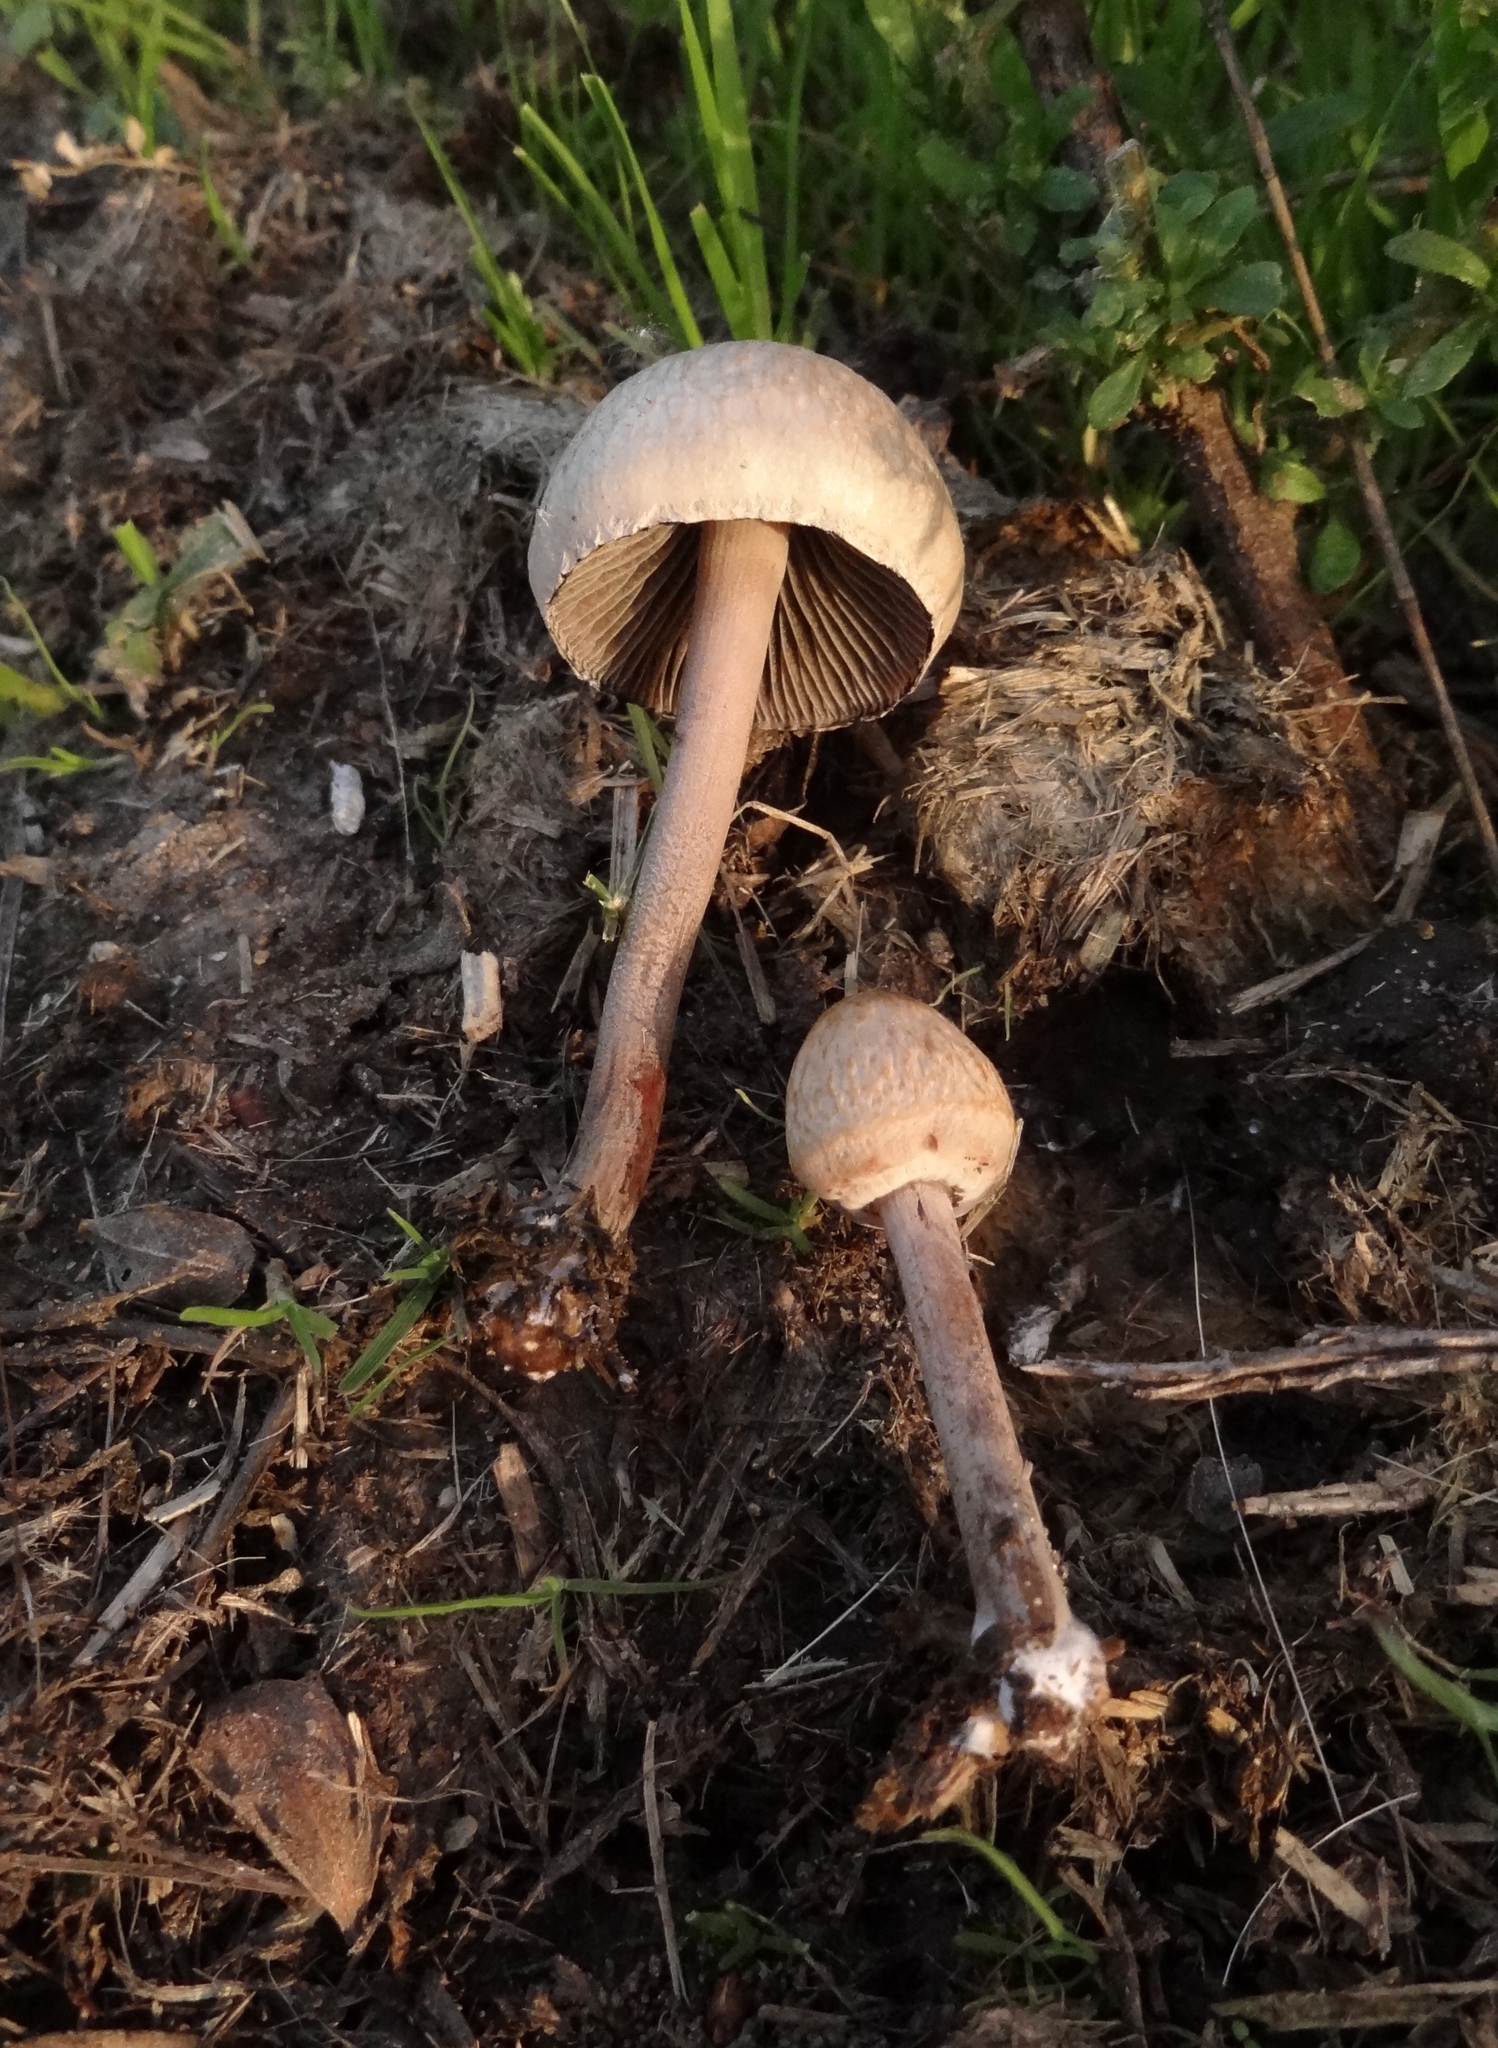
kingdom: Fungi
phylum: Basidiomycota
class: Agaricomycetes
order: Agaricales
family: Bolbitiaceae
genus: Panaeolus
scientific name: Panaeolus papilionaceus
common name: Petticoat mottlegill
